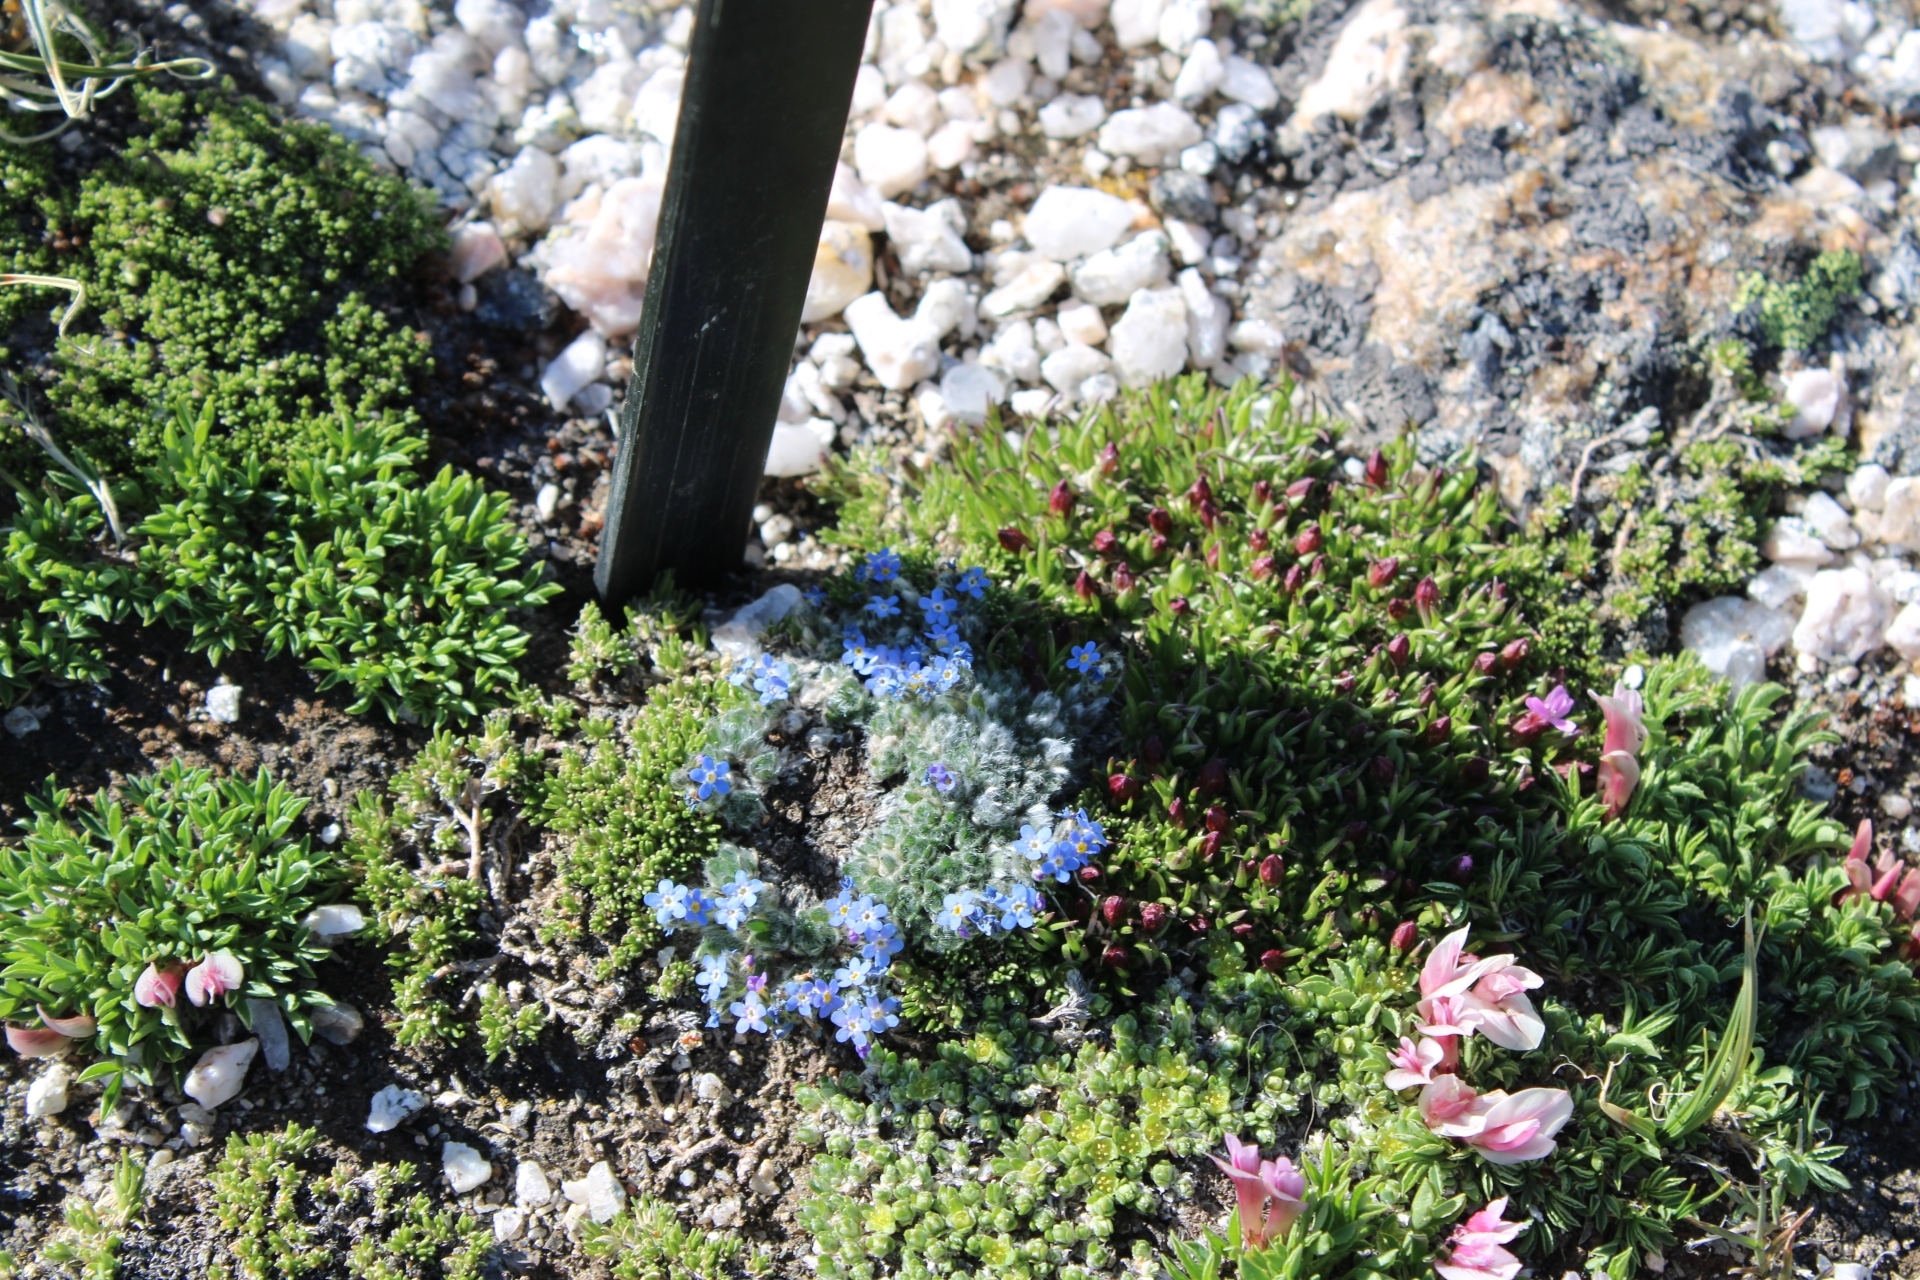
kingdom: Plantae
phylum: Tracheophyta
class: Magnoliopsida
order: Boraginales
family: Boraginaceae
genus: Eritrichium
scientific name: Eritrichium argenteum
